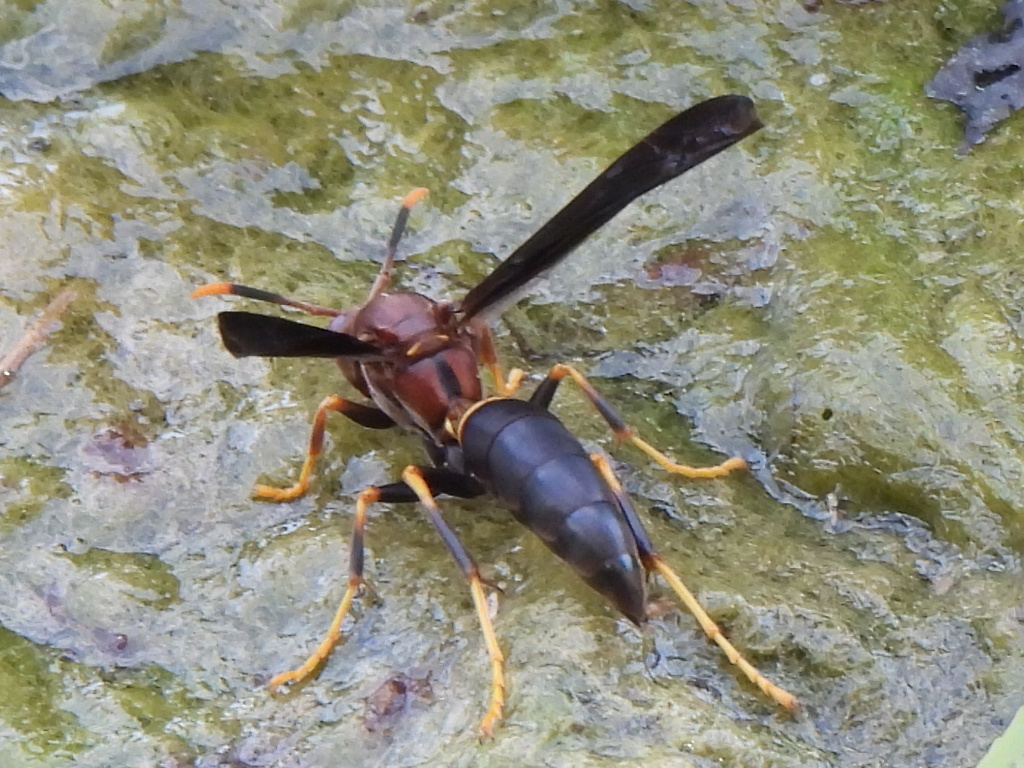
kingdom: Animalia
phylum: Arthropoda
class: Insecta
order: Hymenoptera
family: Eumenidae
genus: Polistes
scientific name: Polistes annularis
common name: Ringed paper wasp
